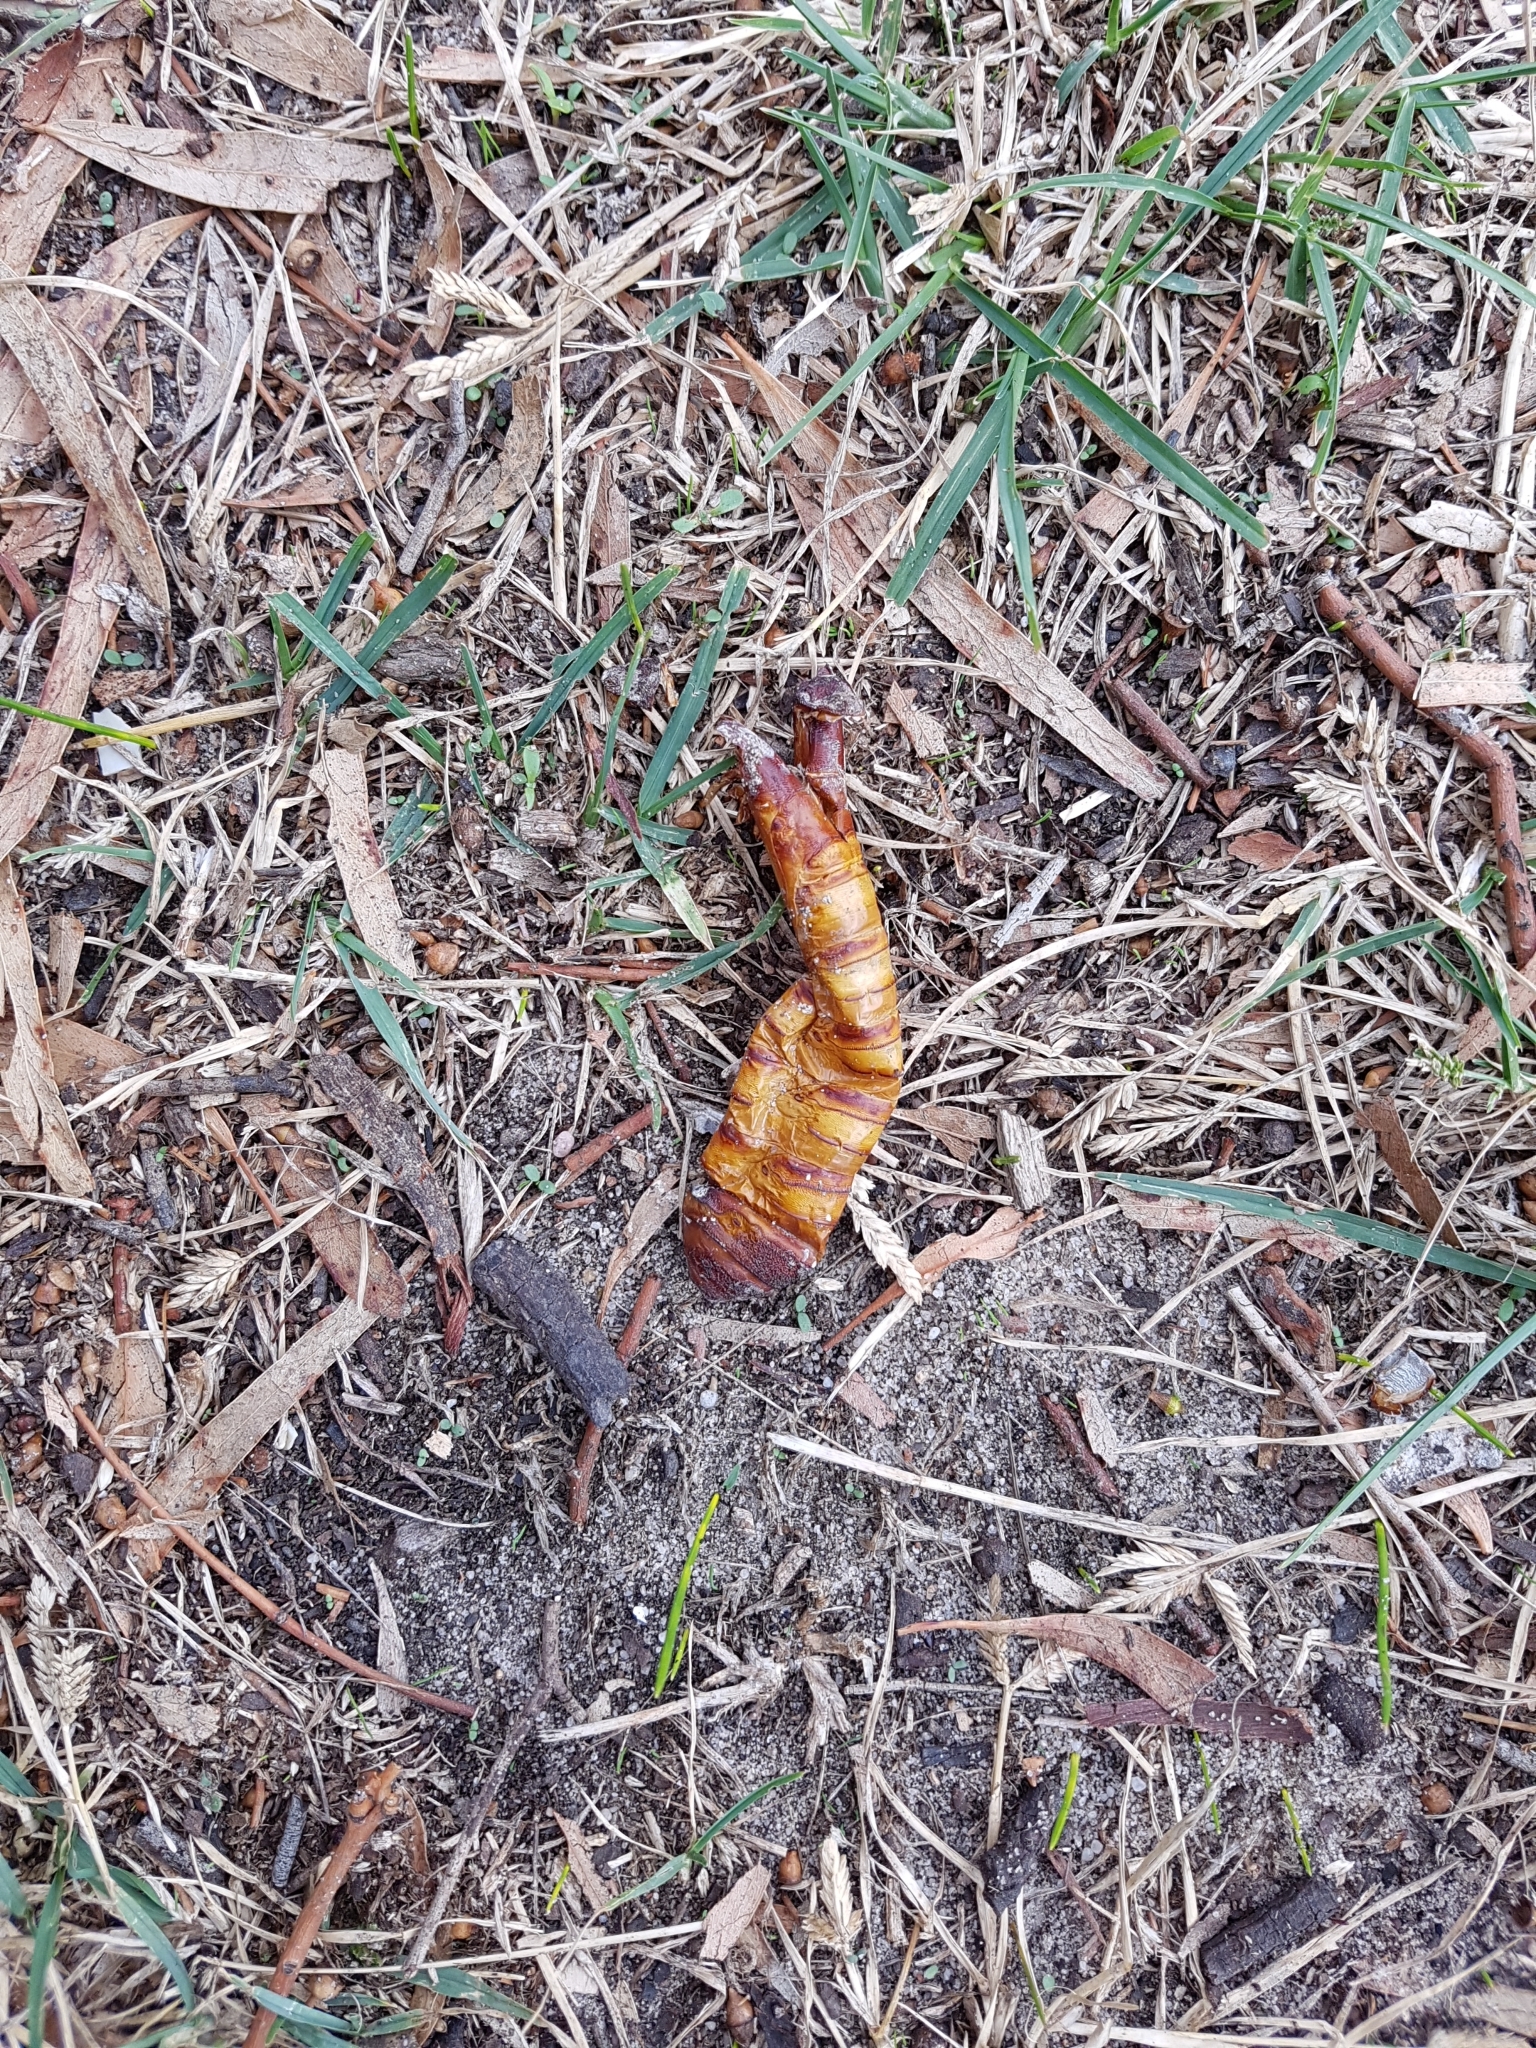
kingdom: Animalia
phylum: Arthropoda
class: Insecta
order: Lepidoptera
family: Hepialidae
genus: Abantiades
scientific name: Abantiades atripalpis
